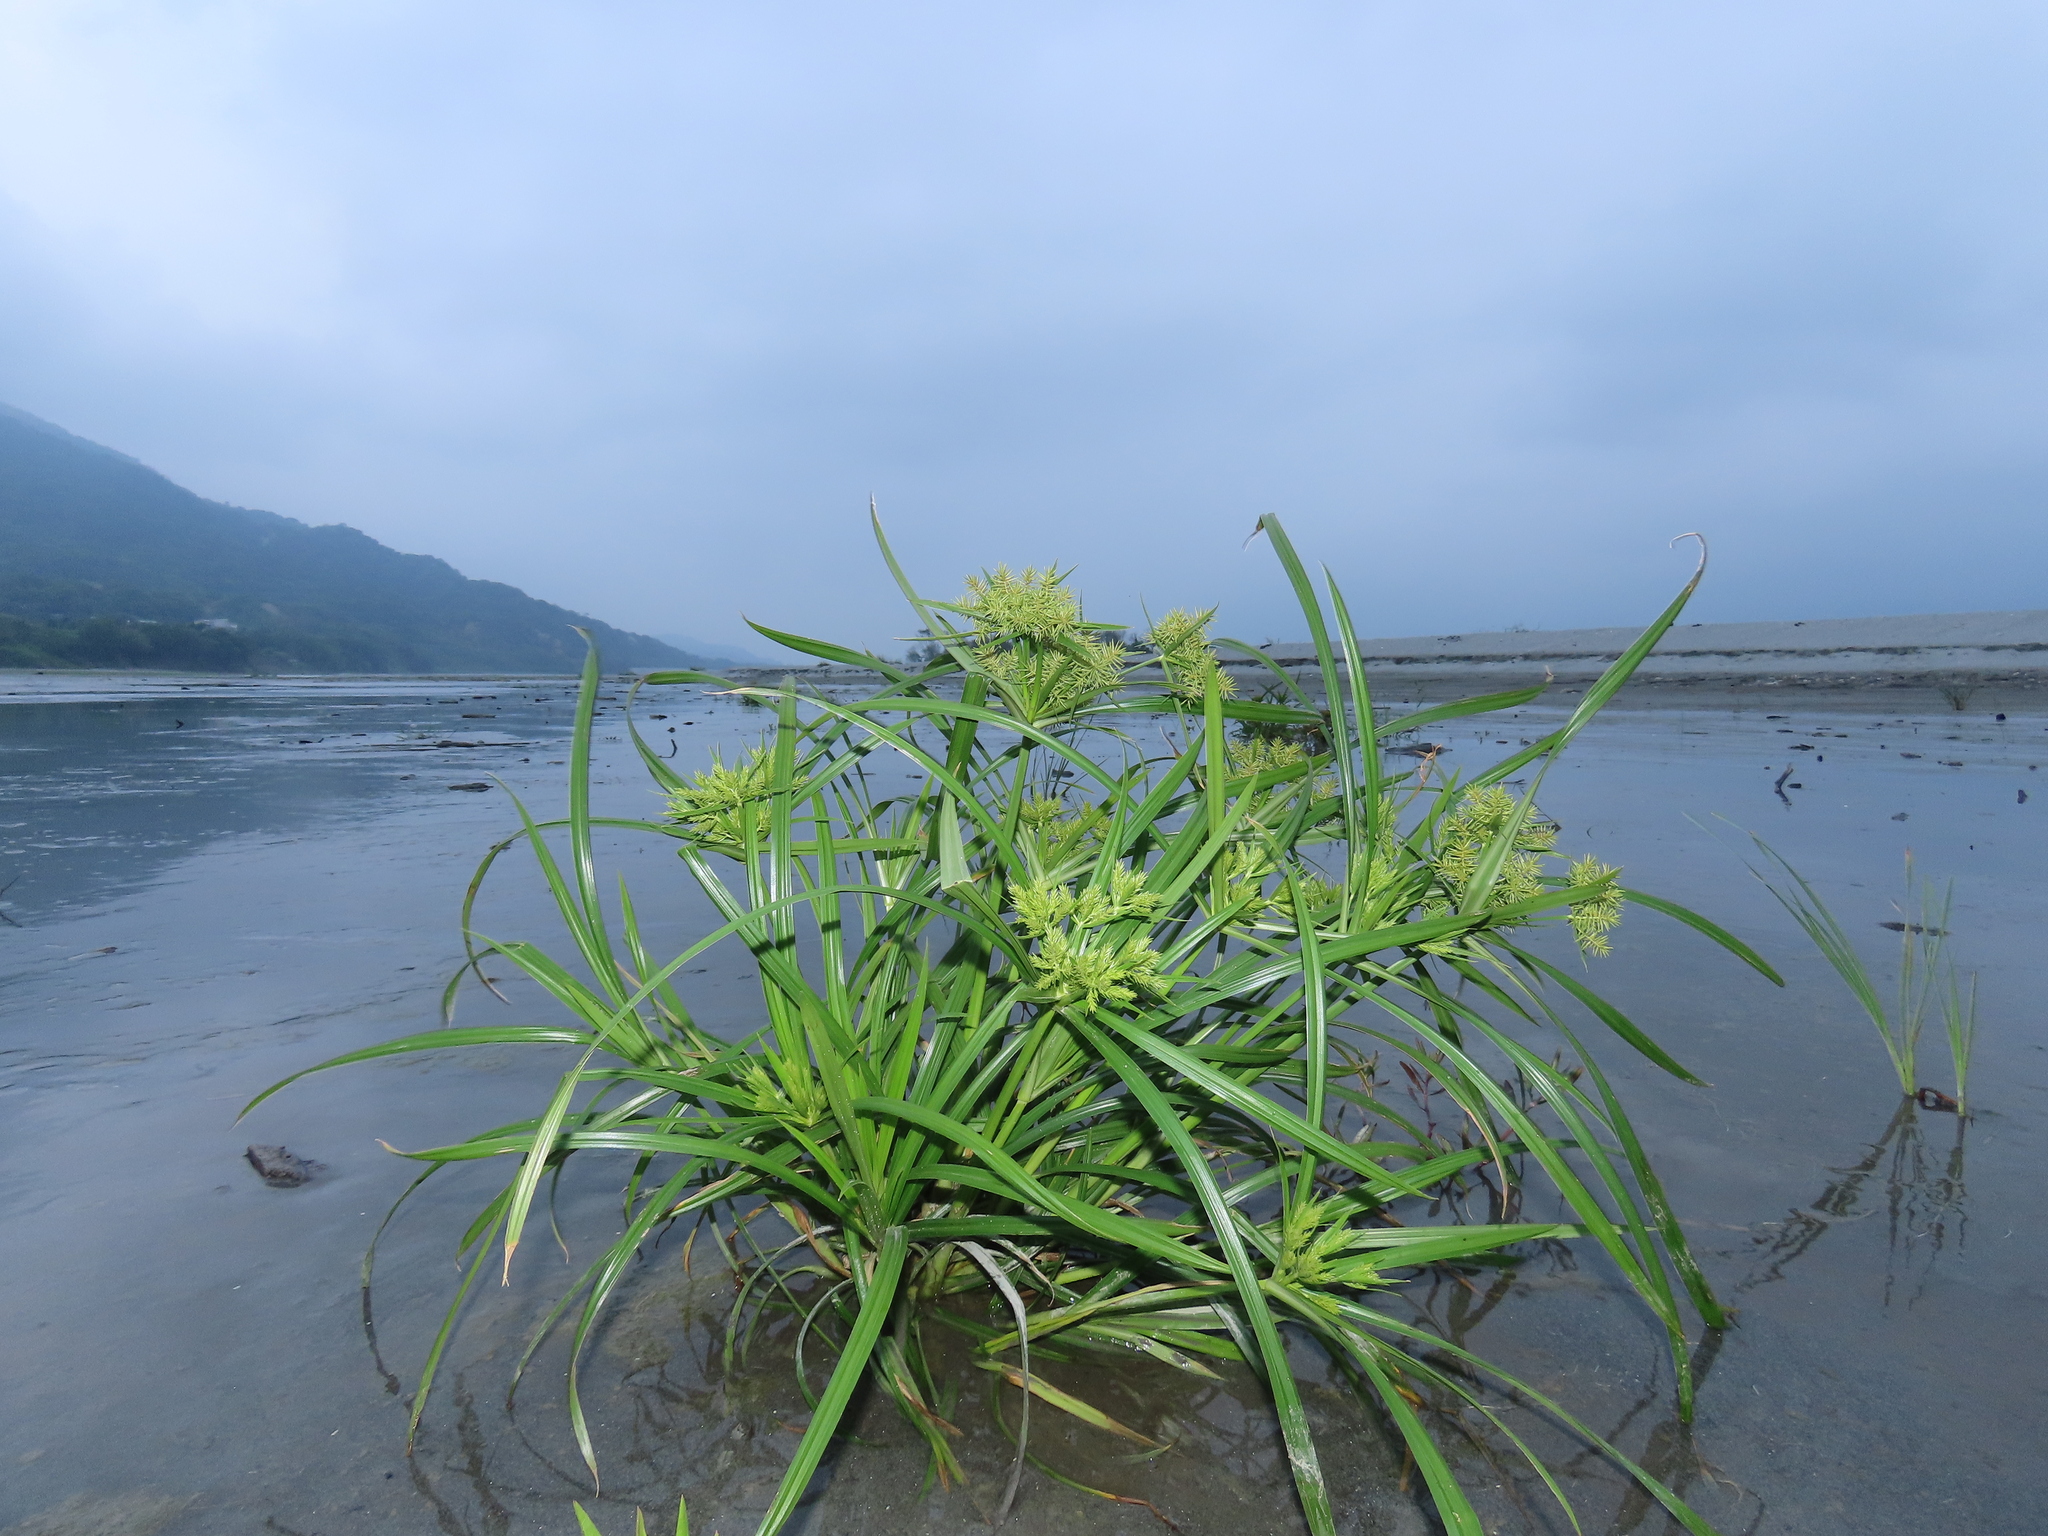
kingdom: Plantae
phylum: Tracheophyta
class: Liliopsida
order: Poales
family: Cyperaceae
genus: Cyperus
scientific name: Cyperus odoratus
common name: Fragrant flatsedge
